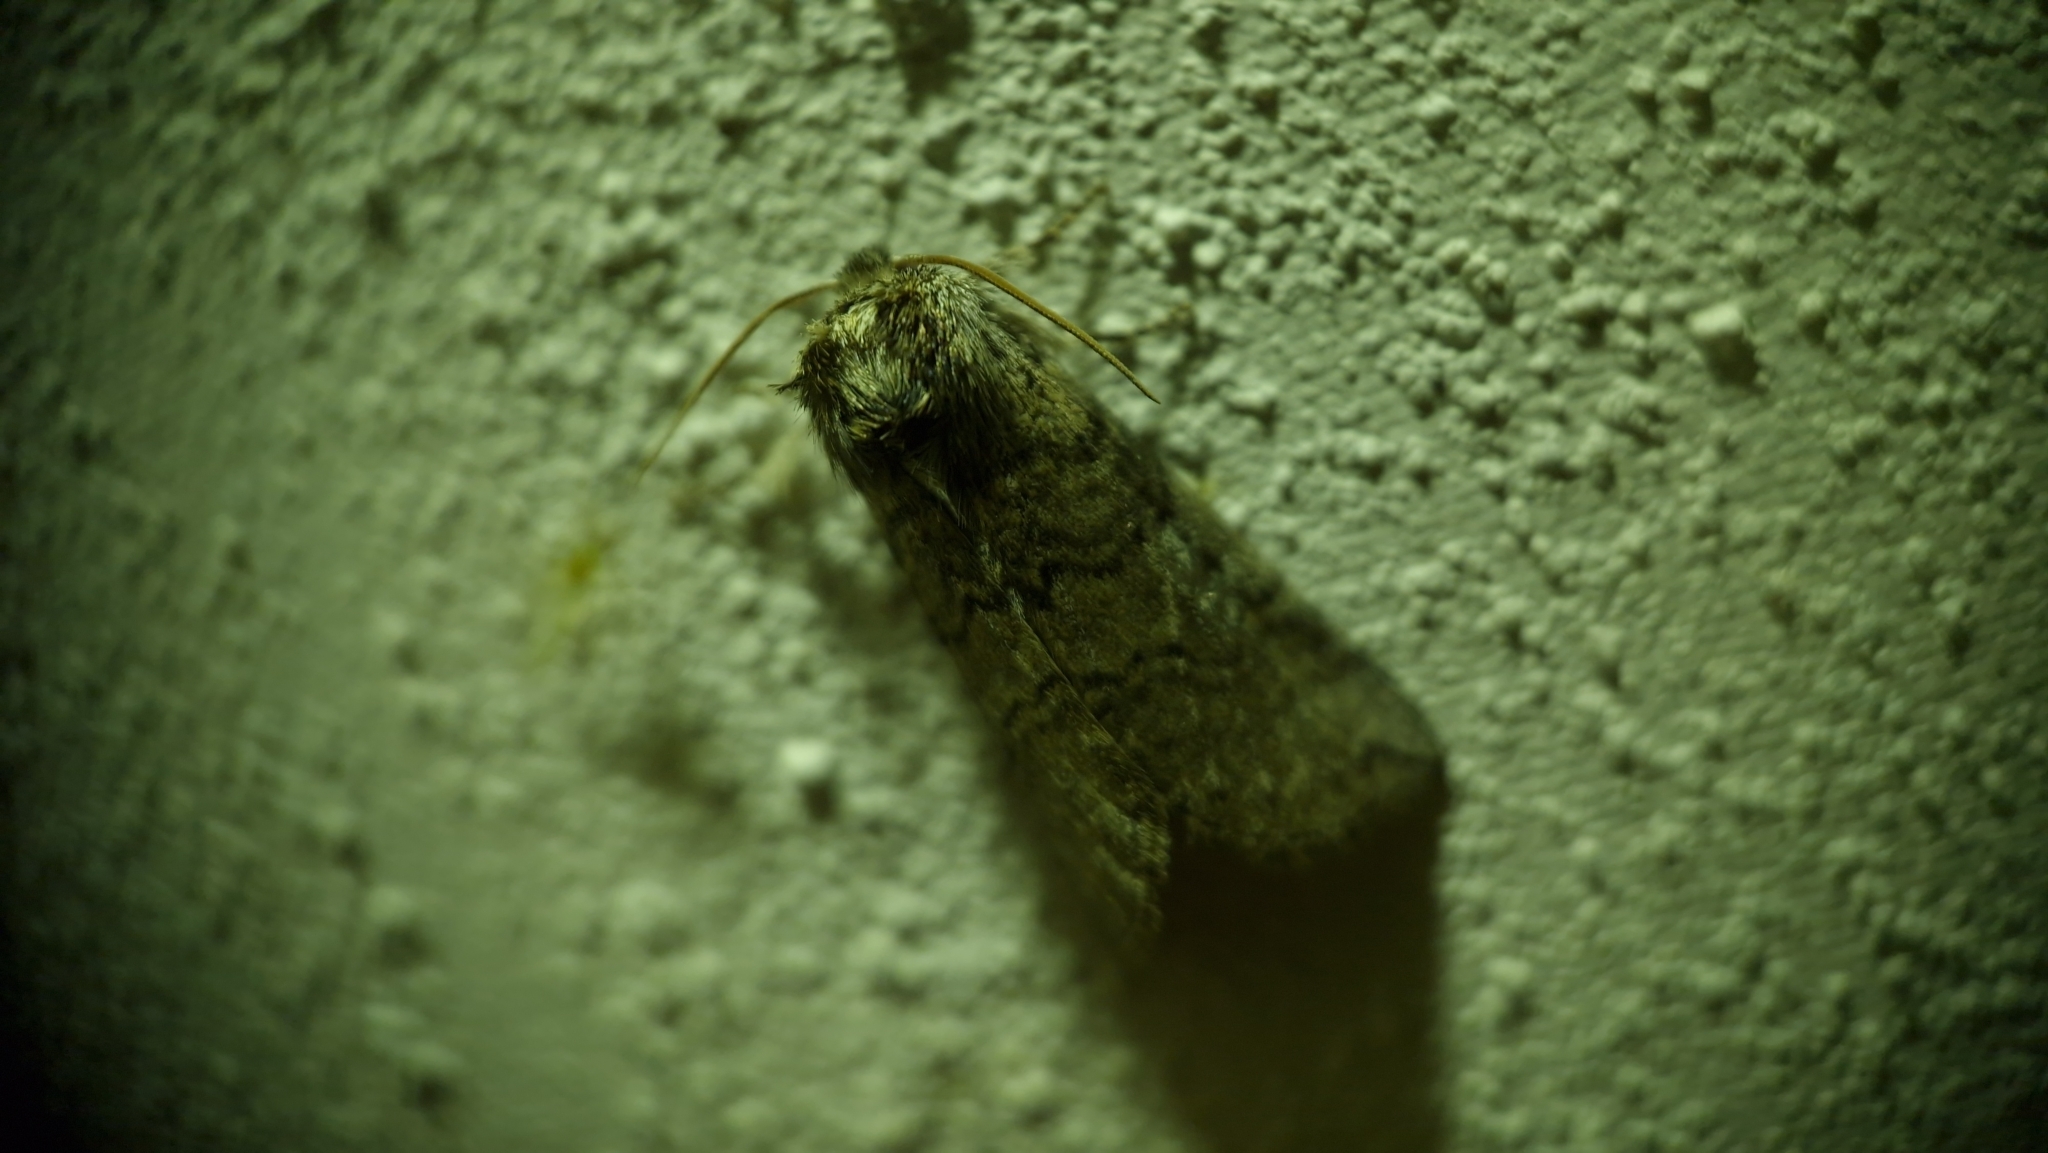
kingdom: Animalia
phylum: Arthropoda
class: Insecta
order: Lepidoptera
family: Drepanidae
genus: Tethea
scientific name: Tethea or
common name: Poplar lutestring
